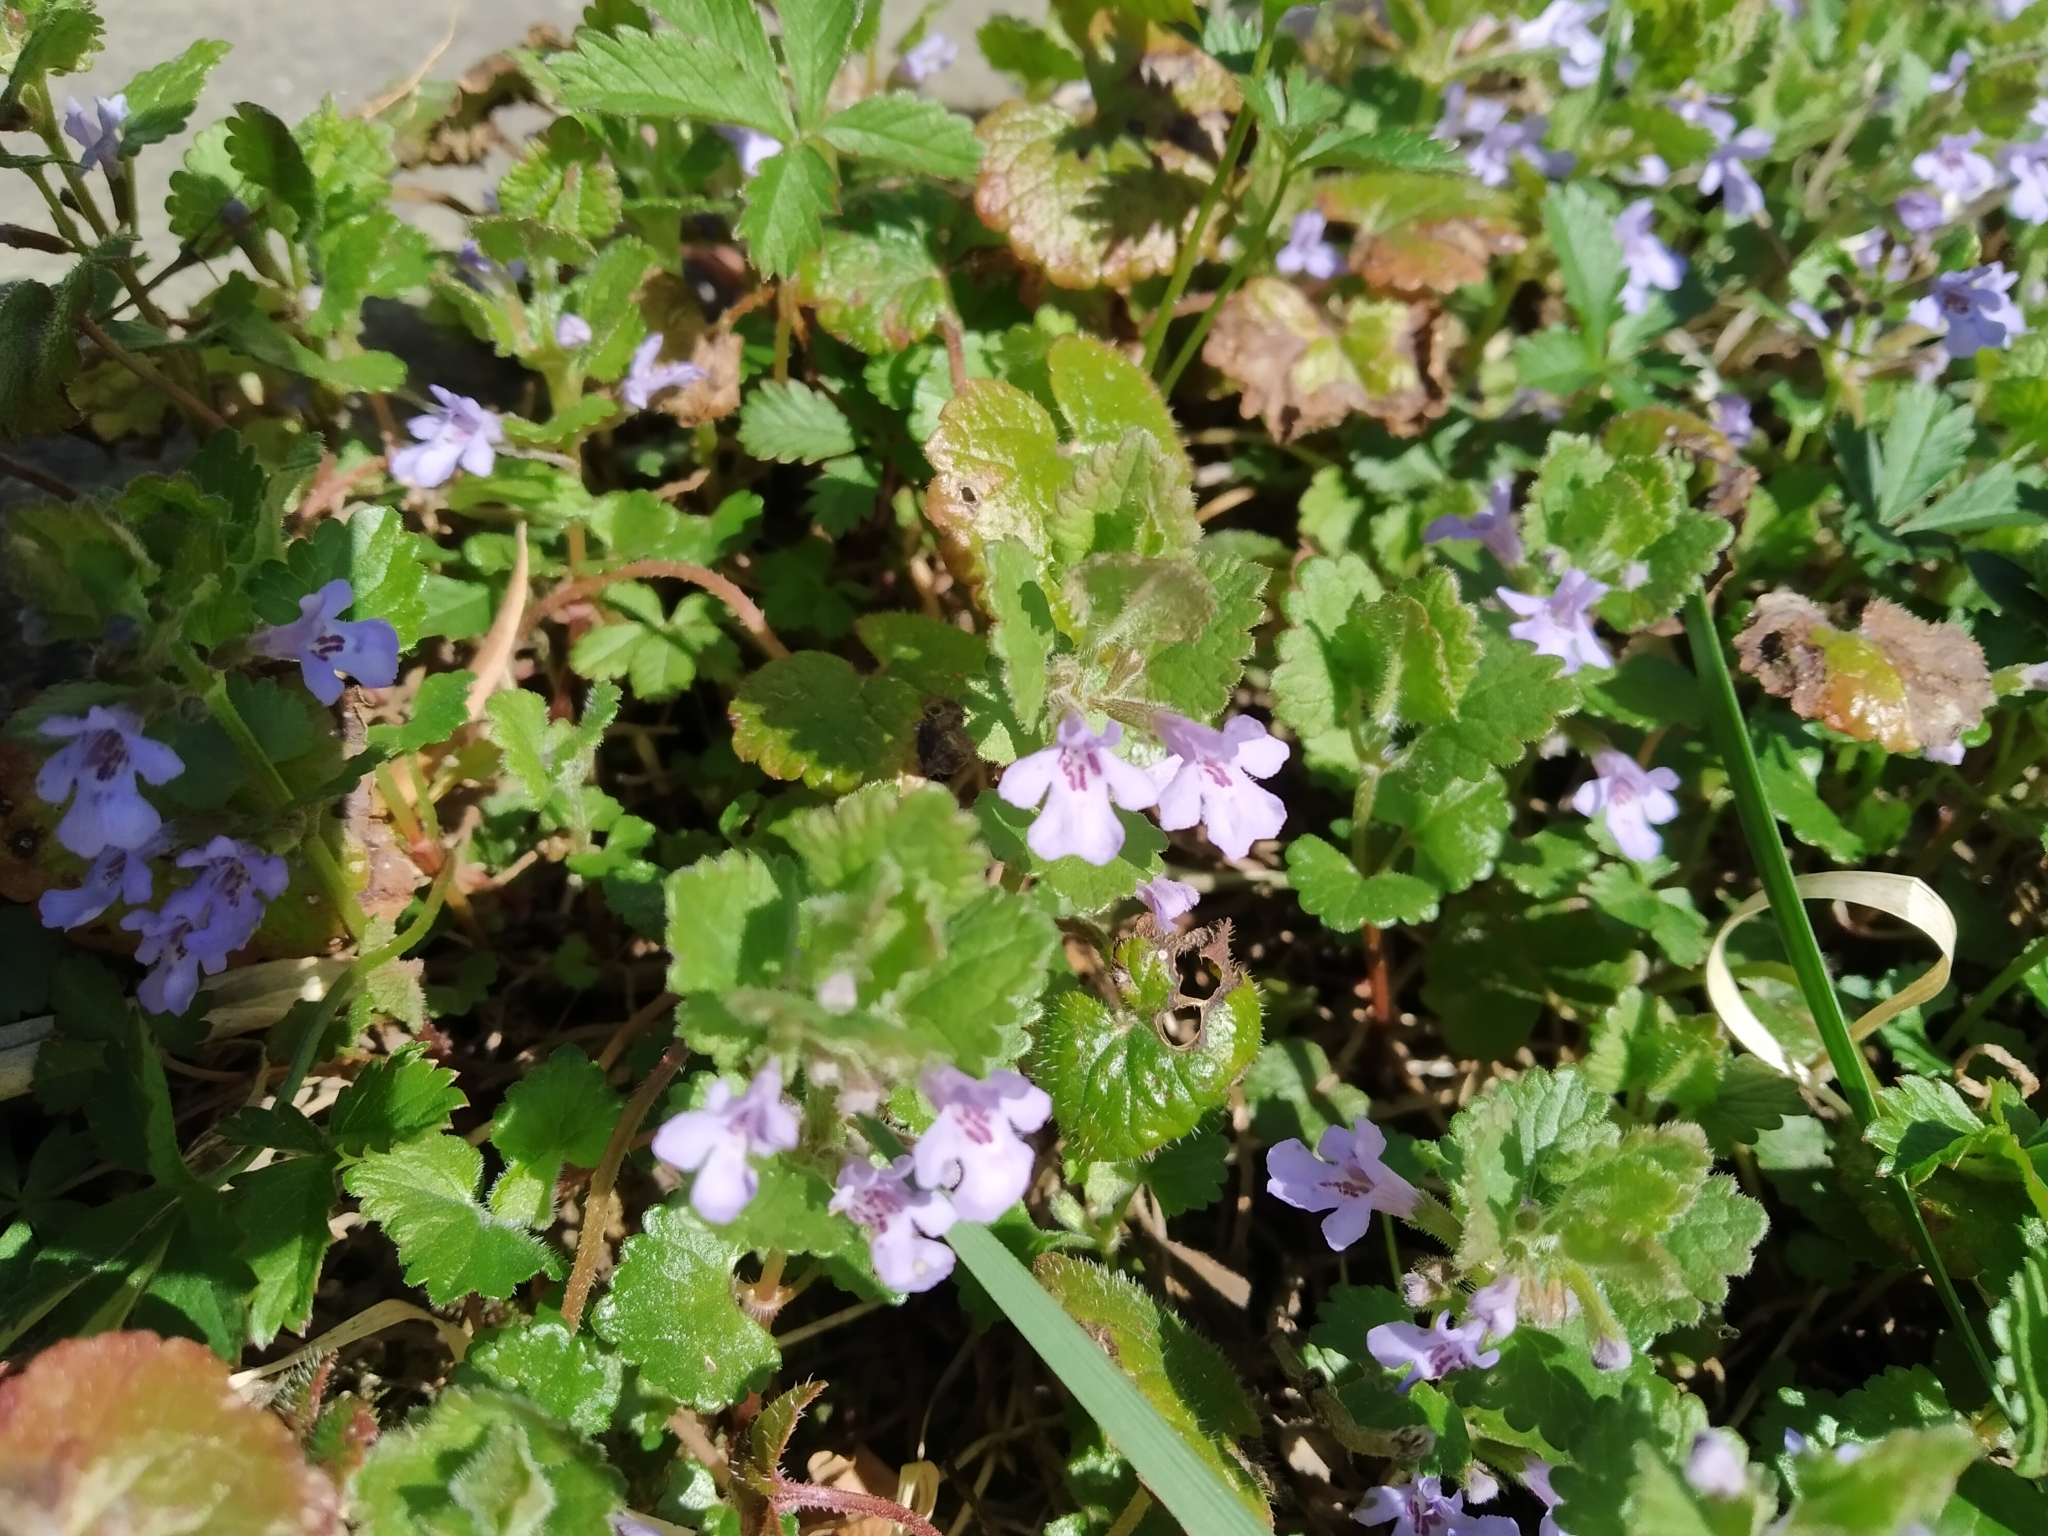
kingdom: Plantae
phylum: Tracheophyta
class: Magnoliopsida
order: Lamiales
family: Lamiaceae
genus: Glechoma
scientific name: Glechoma hederacea
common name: Ground ivy
